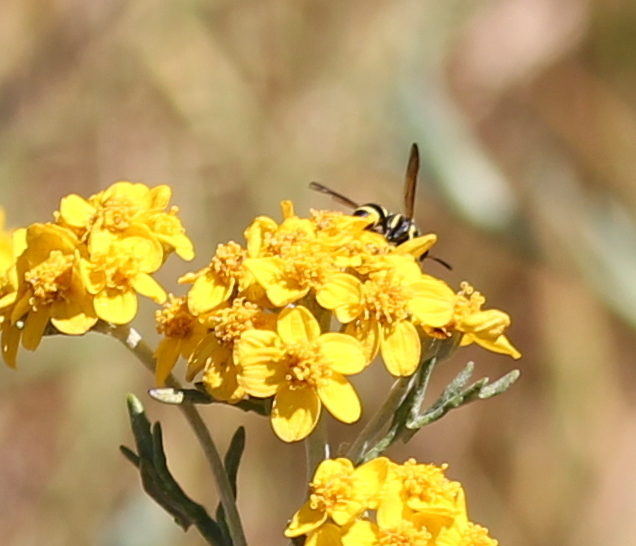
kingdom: Plantae
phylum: Tracheophyta
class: Magnoliopsida
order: Asterales
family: Asteraceae
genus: Eriophyllum
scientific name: Eriophyllum confertiflorum
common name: Golden-yarrow
